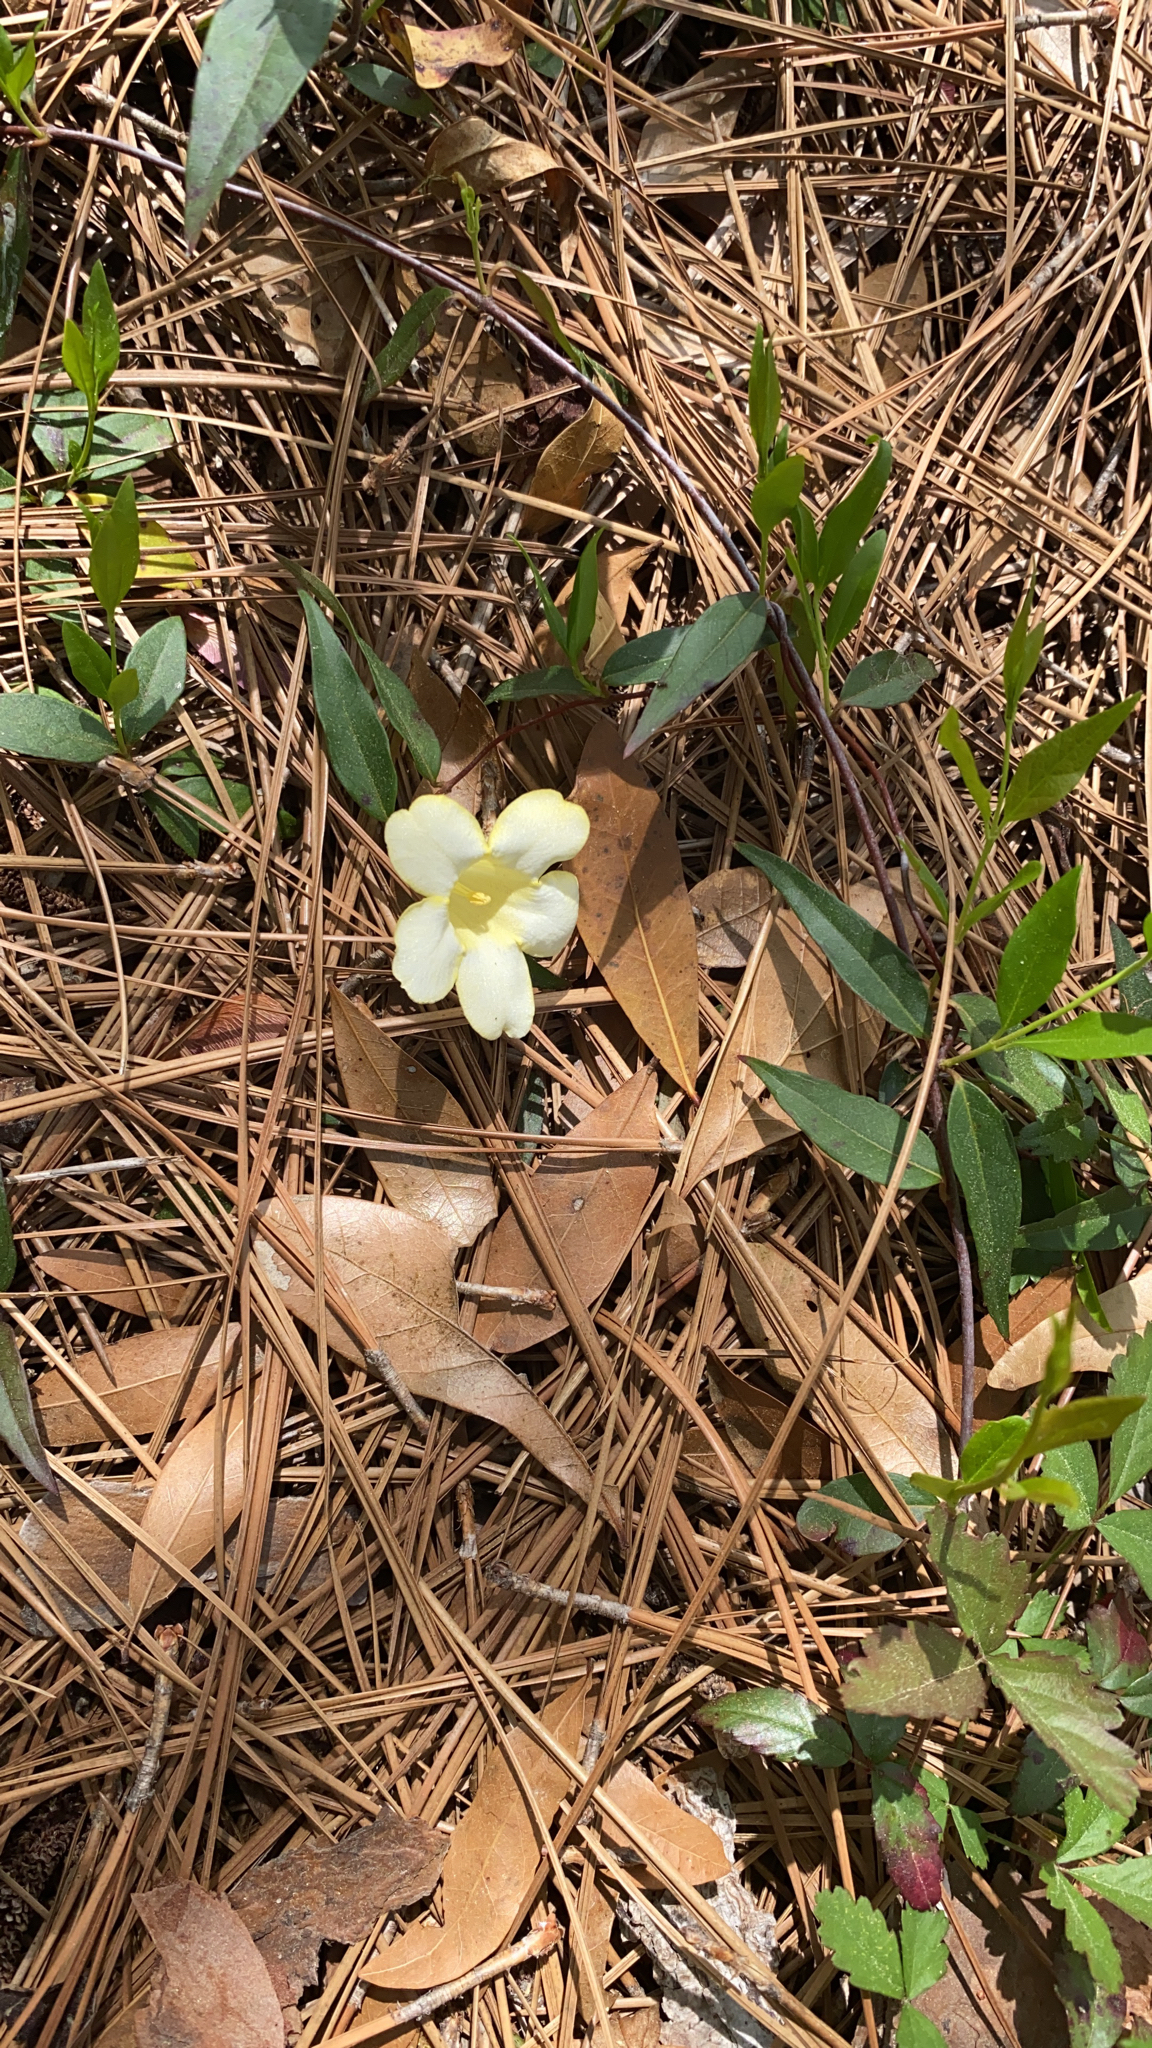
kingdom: Plantae
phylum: Tracheophyta
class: Magnoliopsida
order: Gentianales
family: Gelsemiaceae
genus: Gelsemium
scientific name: Gelsemium sempervirens
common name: Carolina-jasmine
